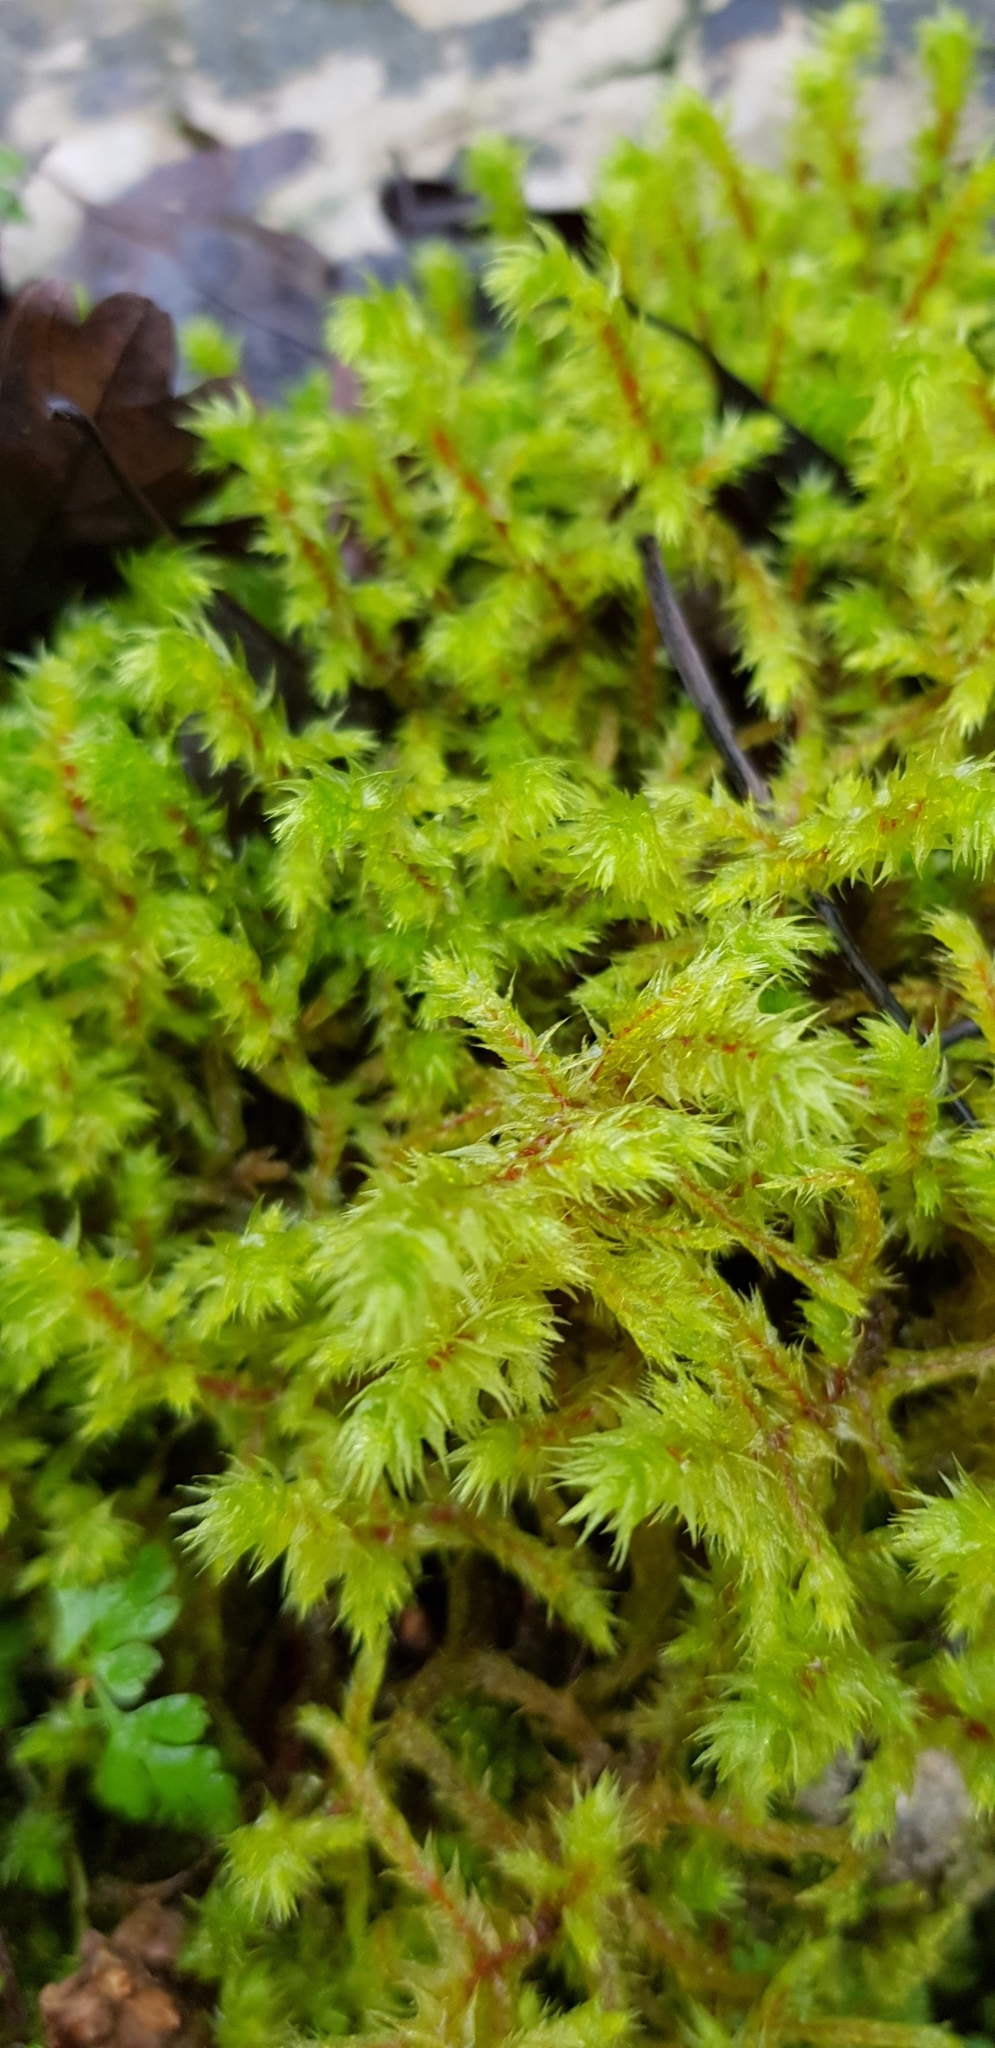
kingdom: Plantae
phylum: Bryophyta
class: Bryopsida
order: Hypnales
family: Hylocomiaceae
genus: Hylocomiadelphus
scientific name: Hylocomiadelphus triquetrus
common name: Rough goose neck moss
